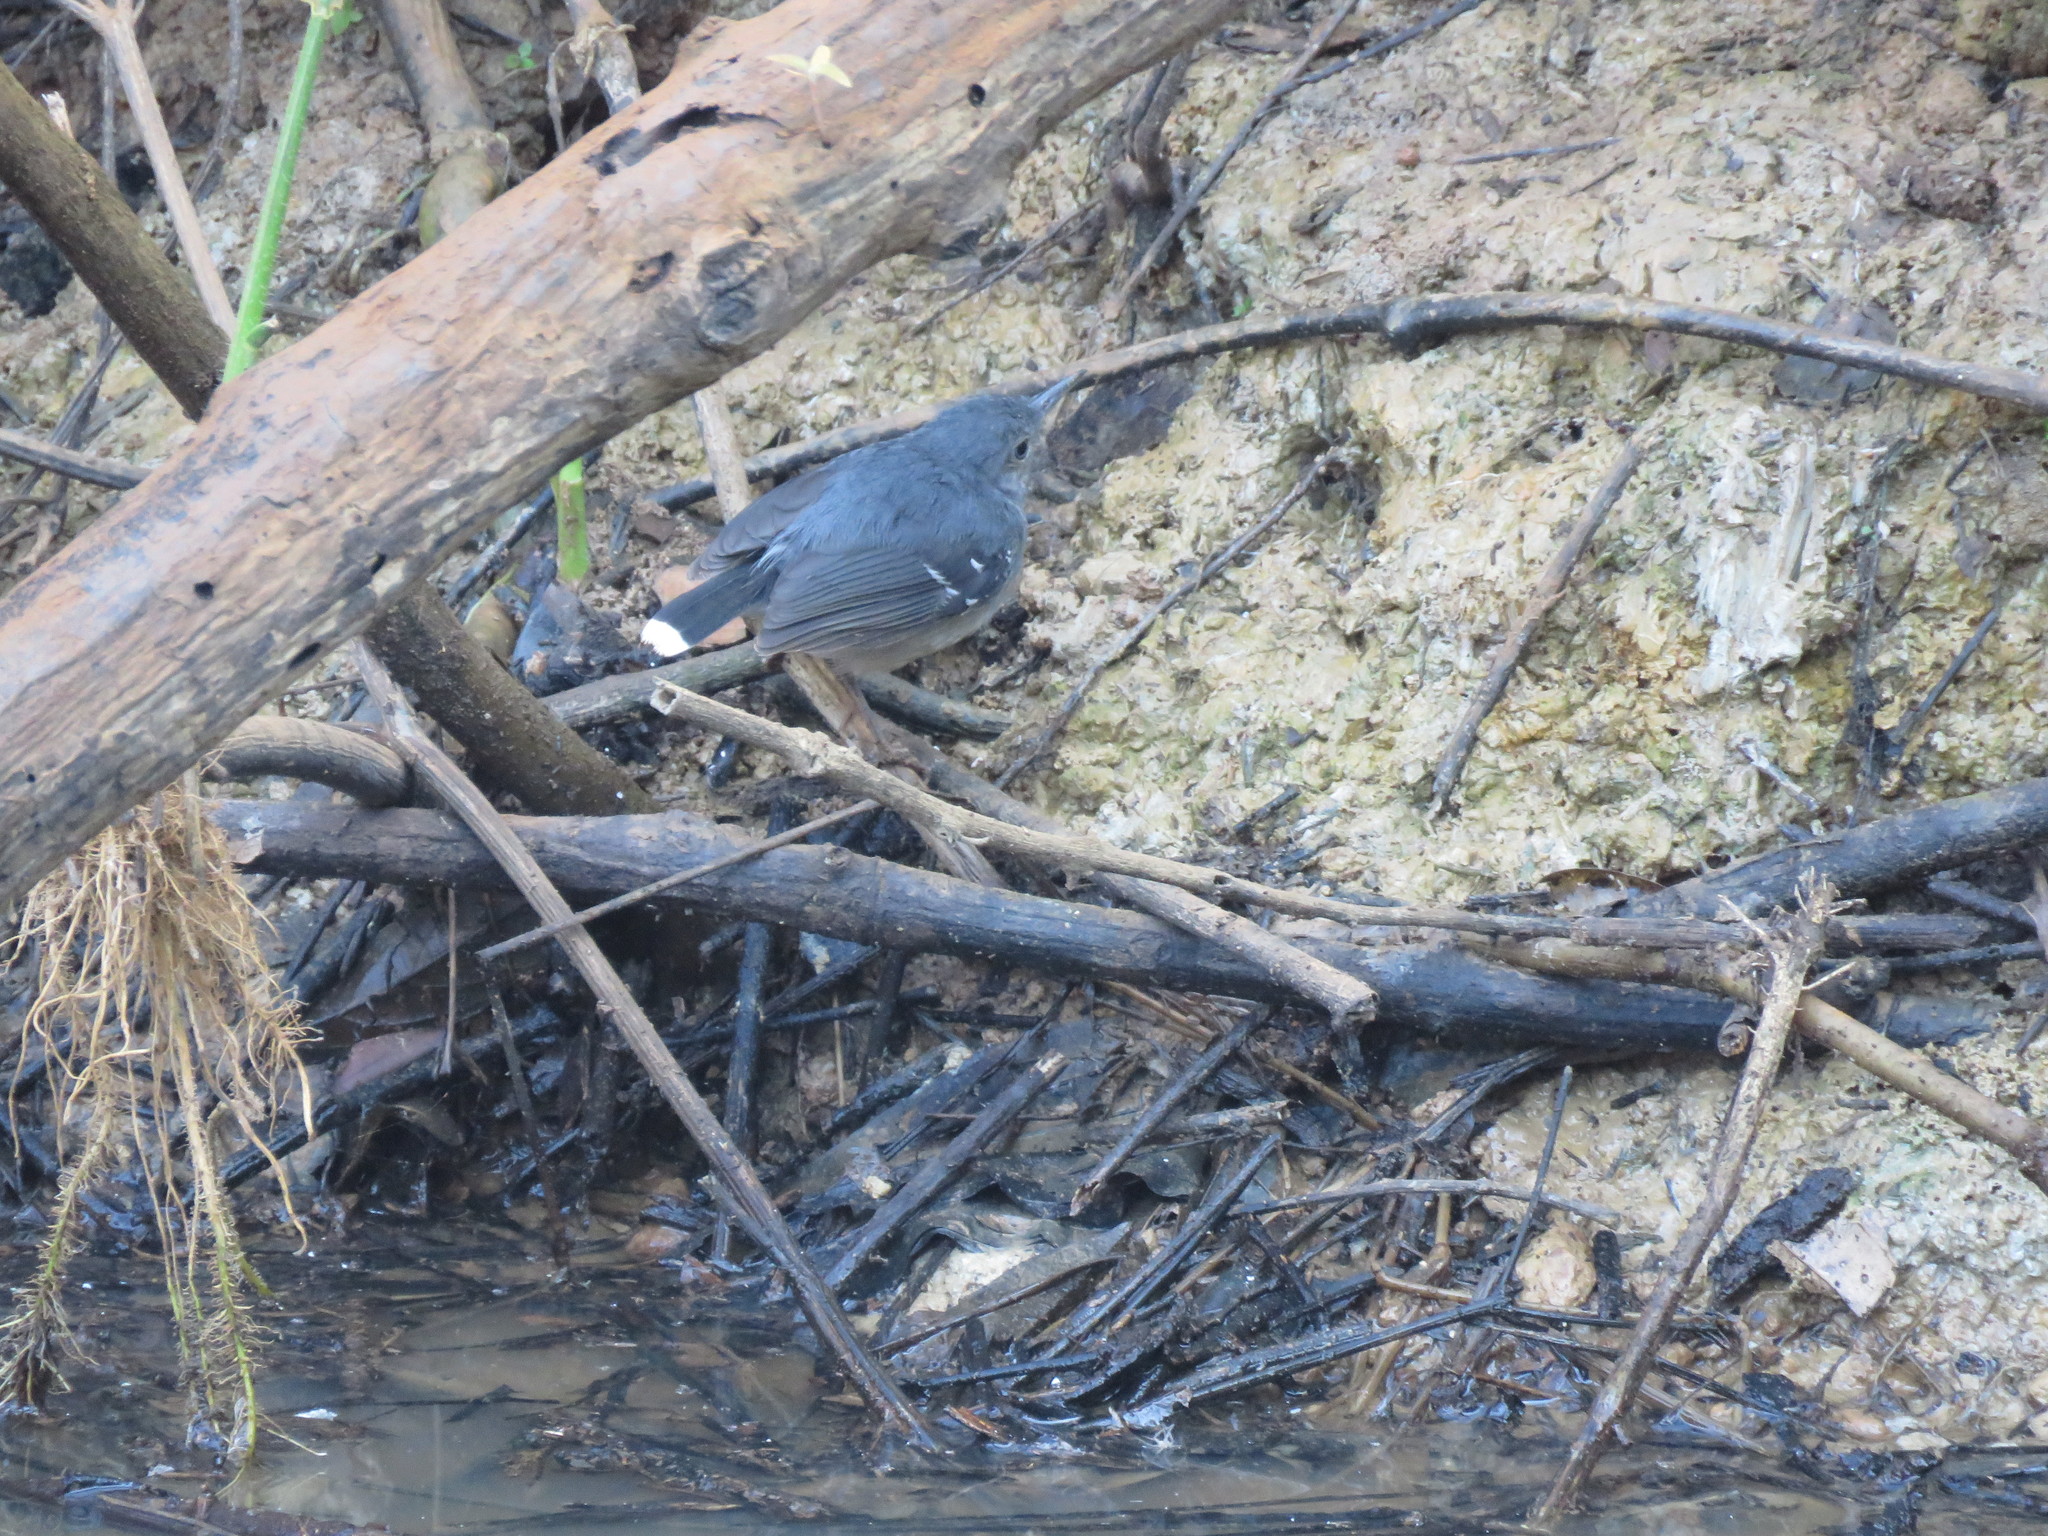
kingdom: Animalia
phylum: Chordata
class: Aves
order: Passeriformes
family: Thamnophilidae
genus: Hypocnemoides
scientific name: Hypocnemoides maculicauda
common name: Band-tailed antbird
